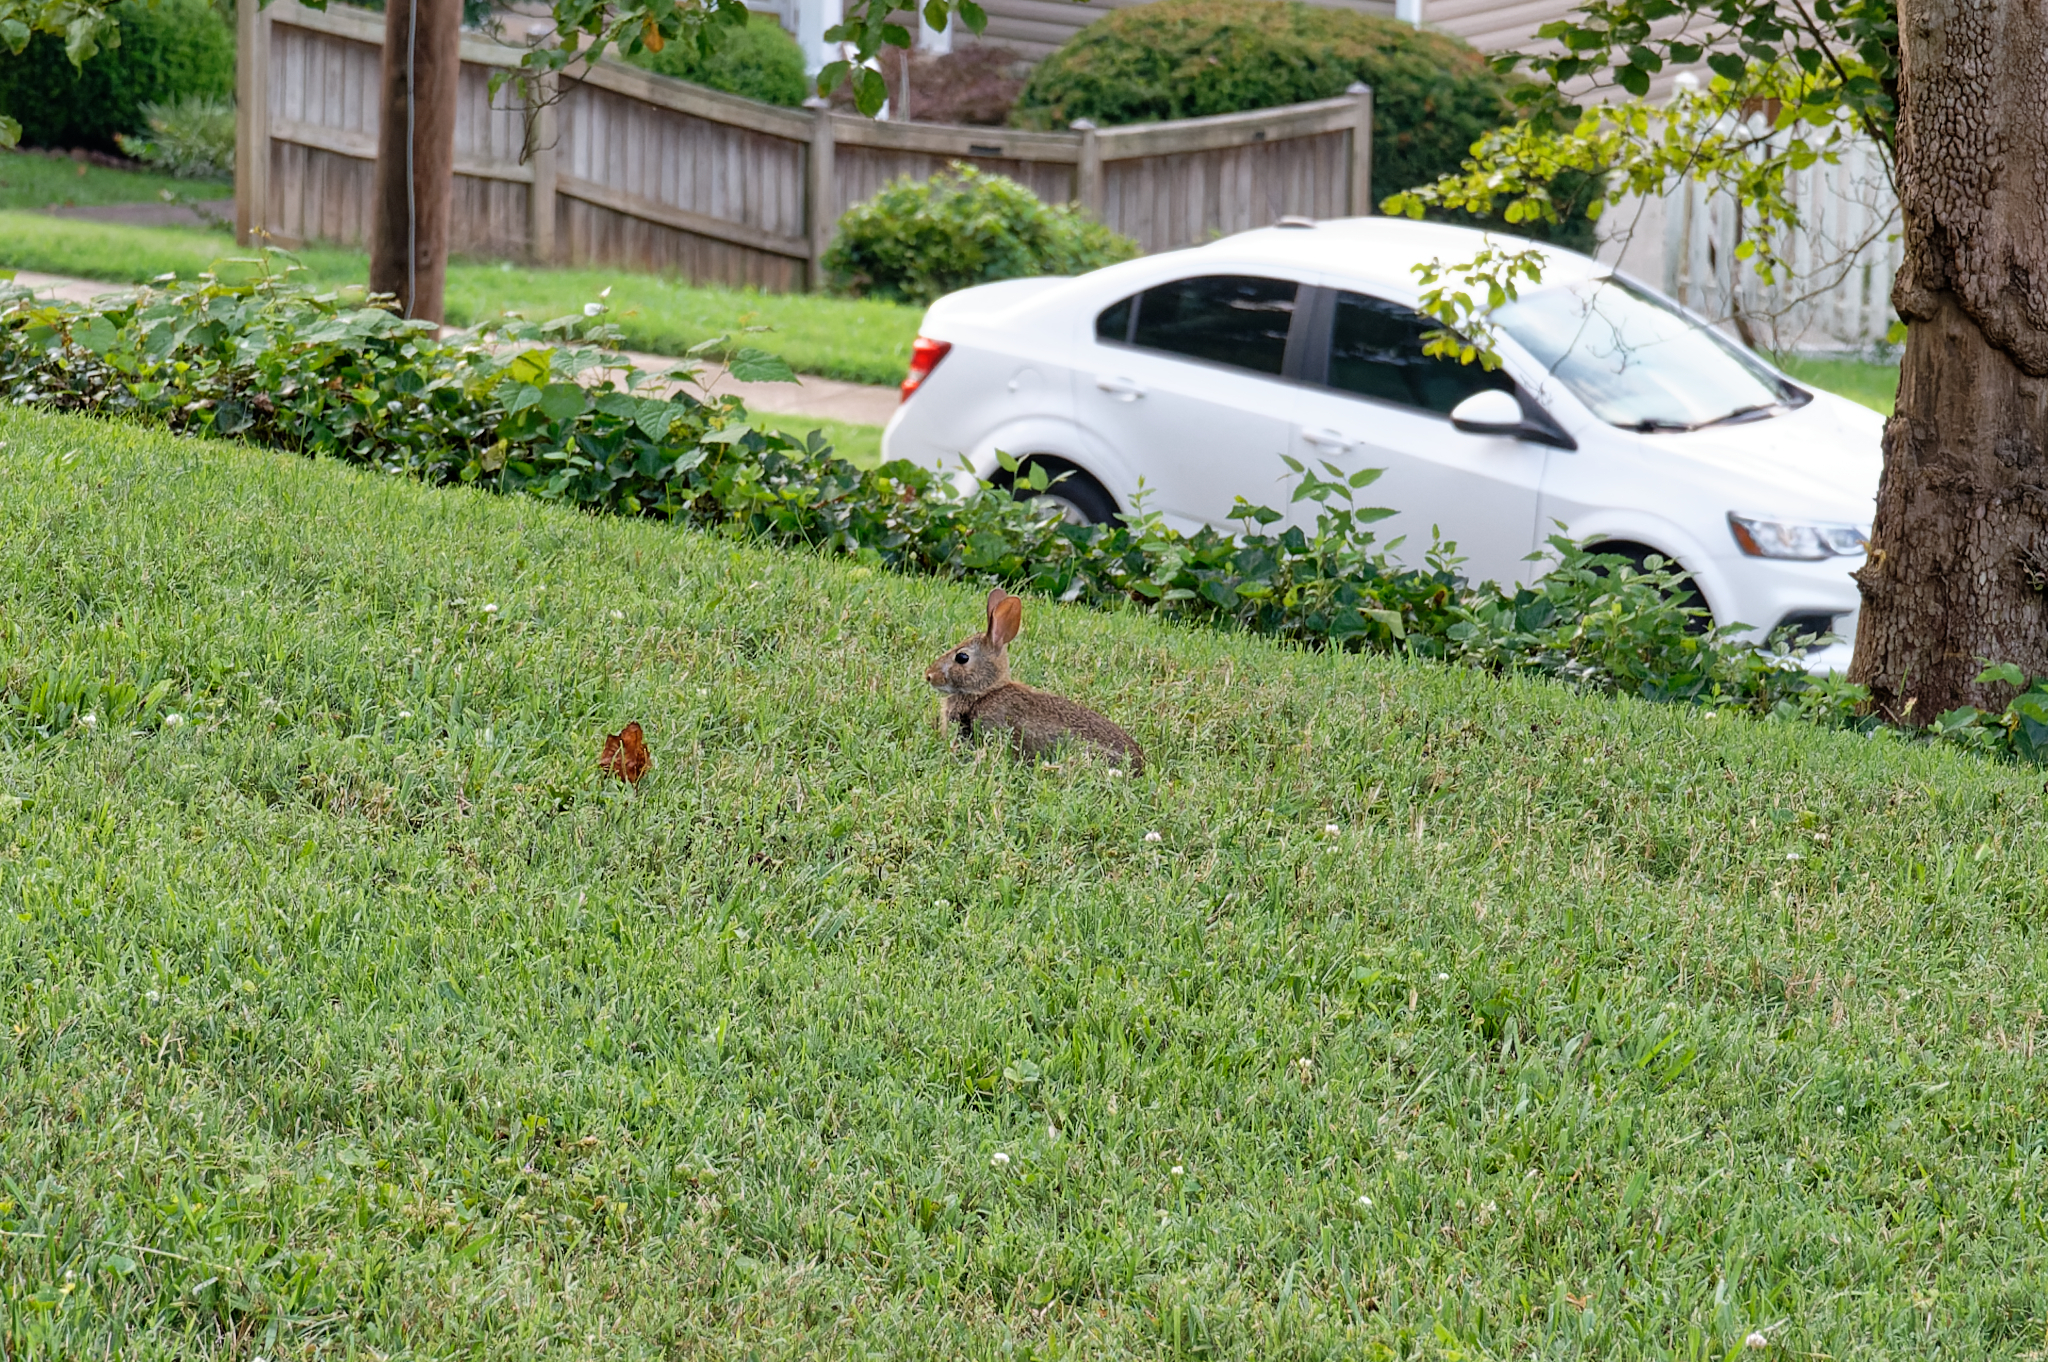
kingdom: Animalia
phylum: Chordata
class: Mammalia
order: Lagomorpha
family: Leporidae
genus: Sylvilagus
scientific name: Sylvilagus floridanus
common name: Eastern cottontail
